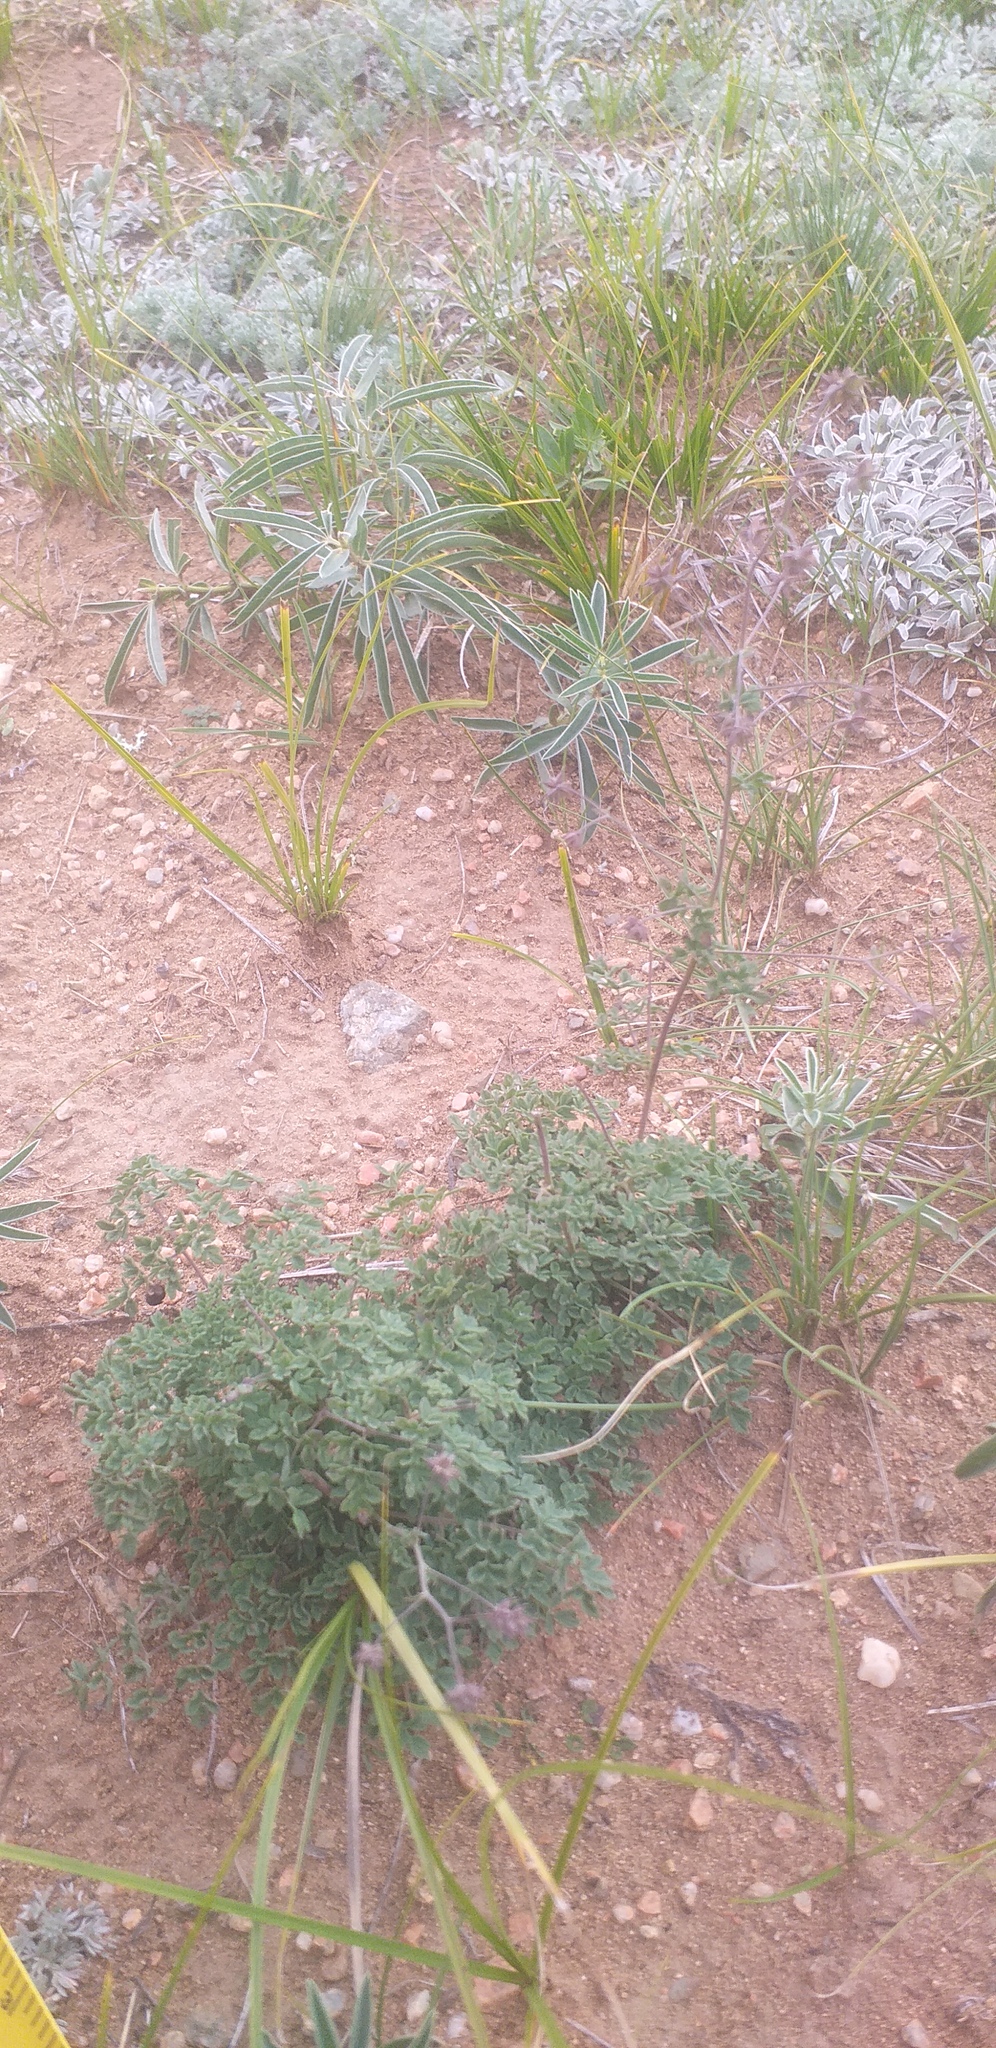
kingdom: Plantae
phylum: Tracheophyta
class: Magnoliopsida
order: Ranunculales
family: Ranunculaceae
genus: Thalictrum
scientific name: Thalictrum simplex
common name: Small meadow-rue
